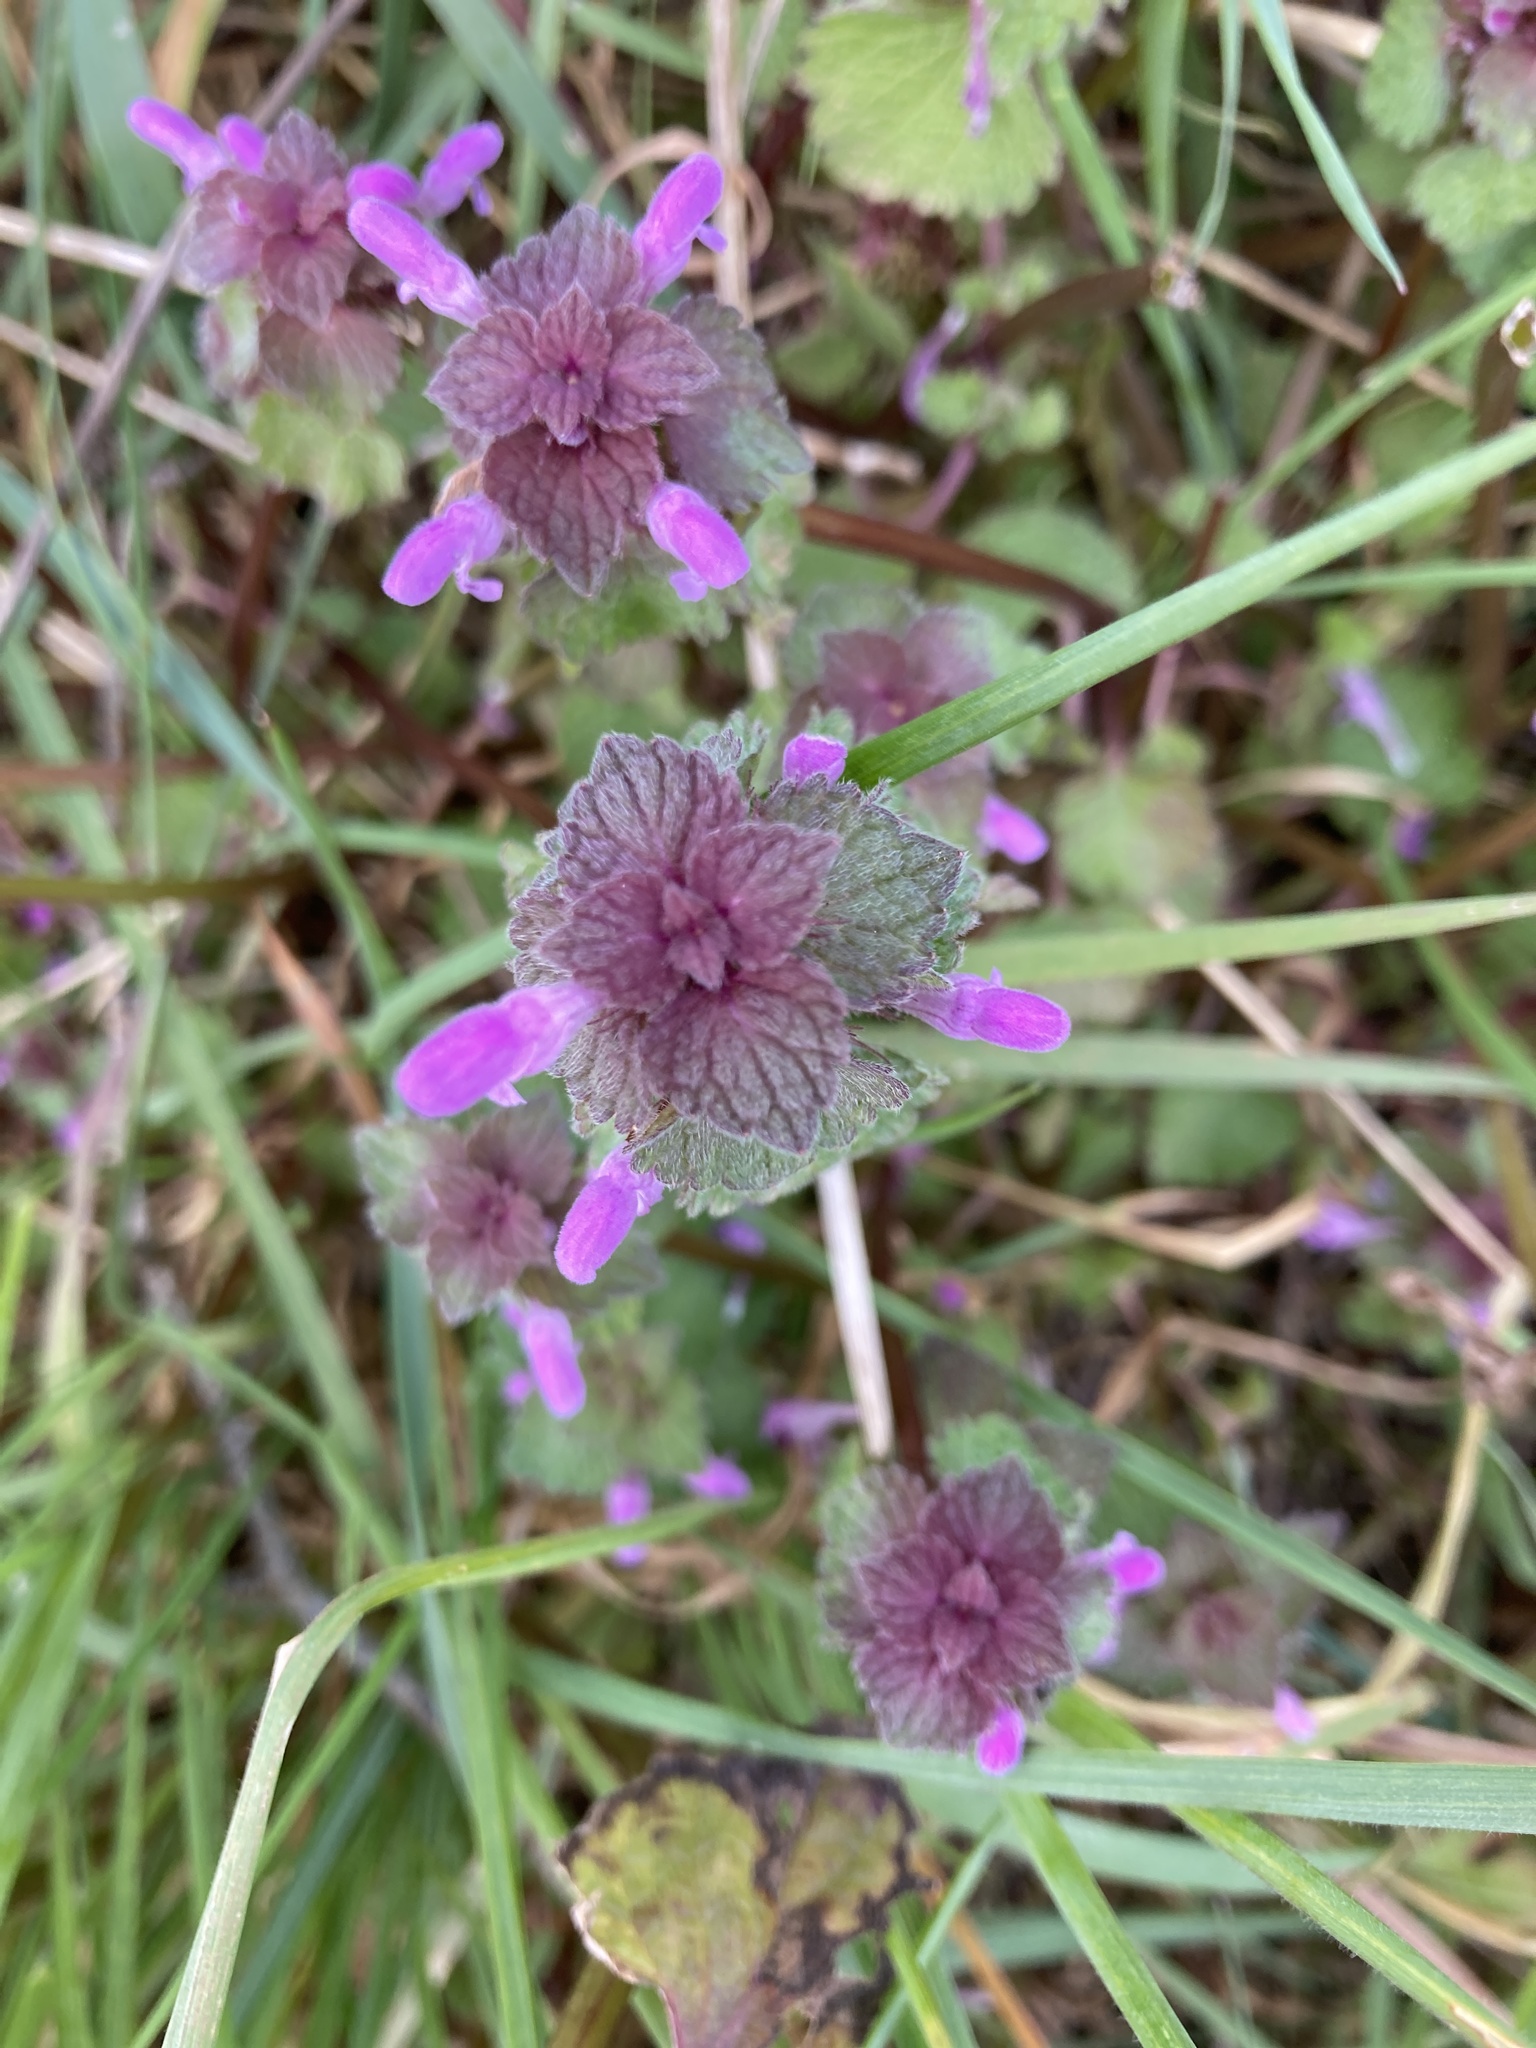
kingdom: Plantae
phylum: Tracheophyta
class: Magnoliopsida
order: Lamiales
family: Lamiaceae
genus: Lamium
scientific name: Lamium purpureum
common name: Red dead-nettle
